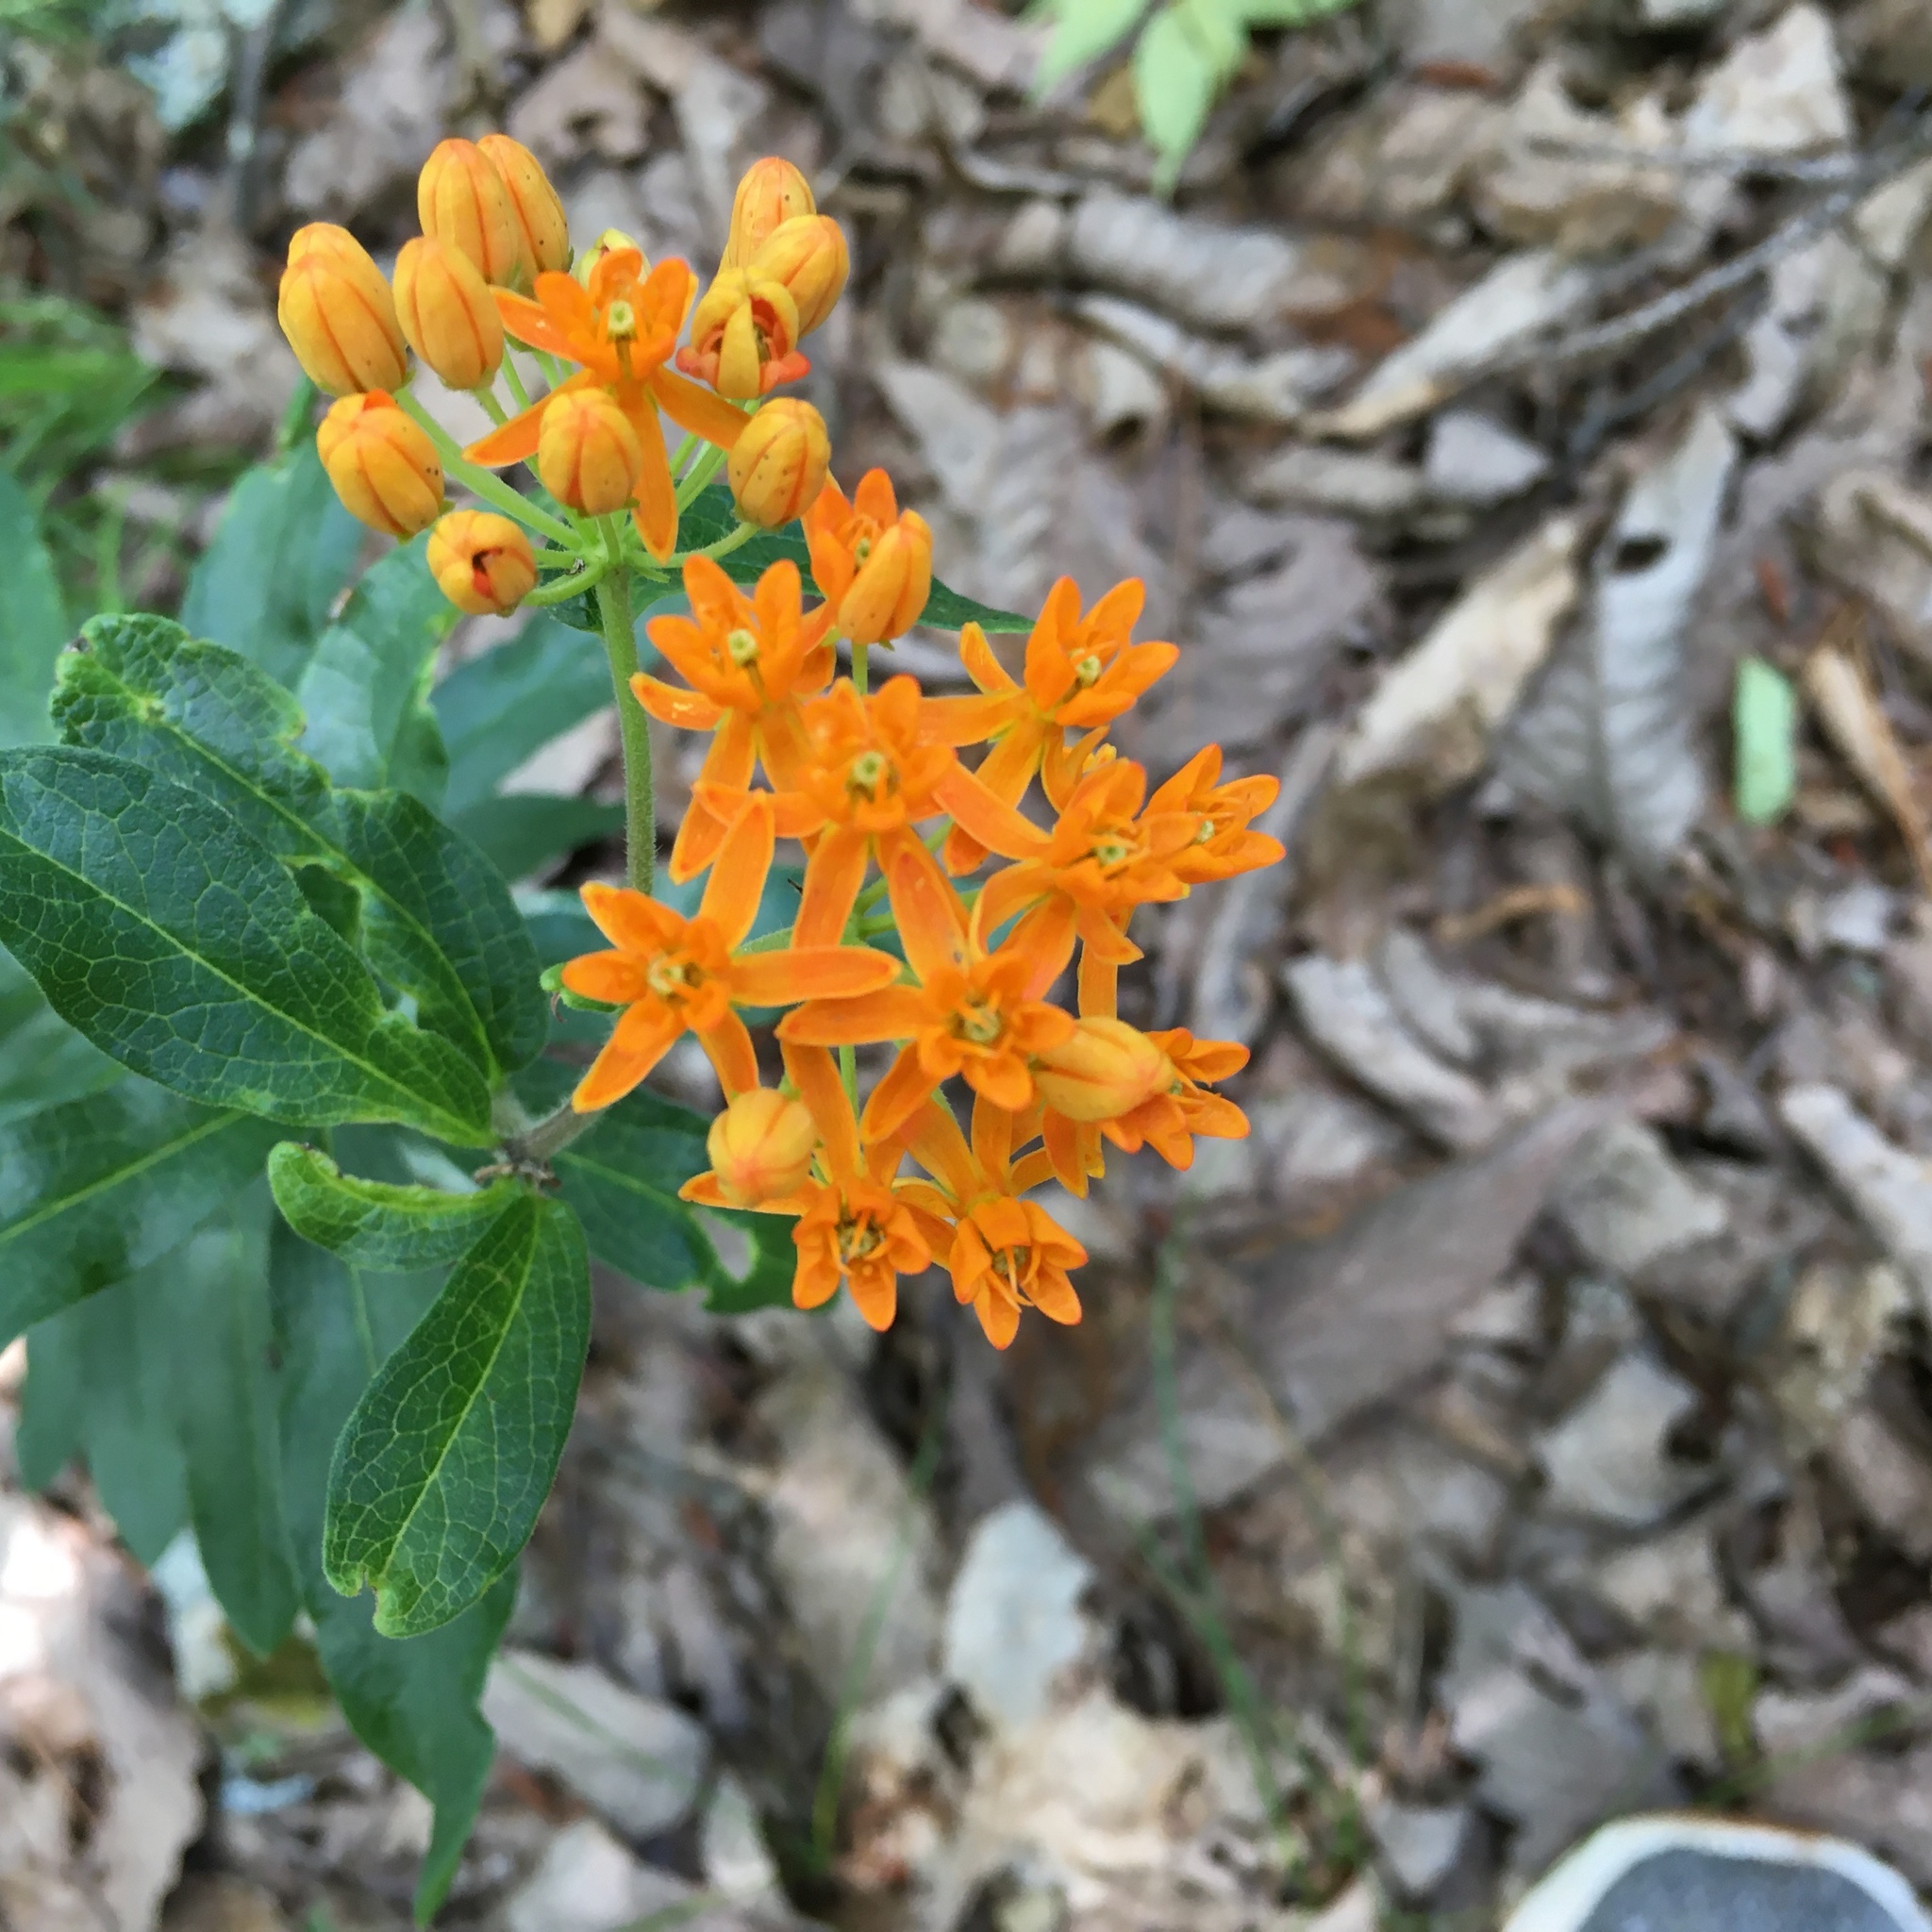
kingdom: Plantae
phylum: Tracheophyta
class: Magnoliopsida
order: Gentianales
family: Apocynaceae
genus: Asclepias
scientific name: Asclepias tuberosa
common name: Butterfly milkweed
